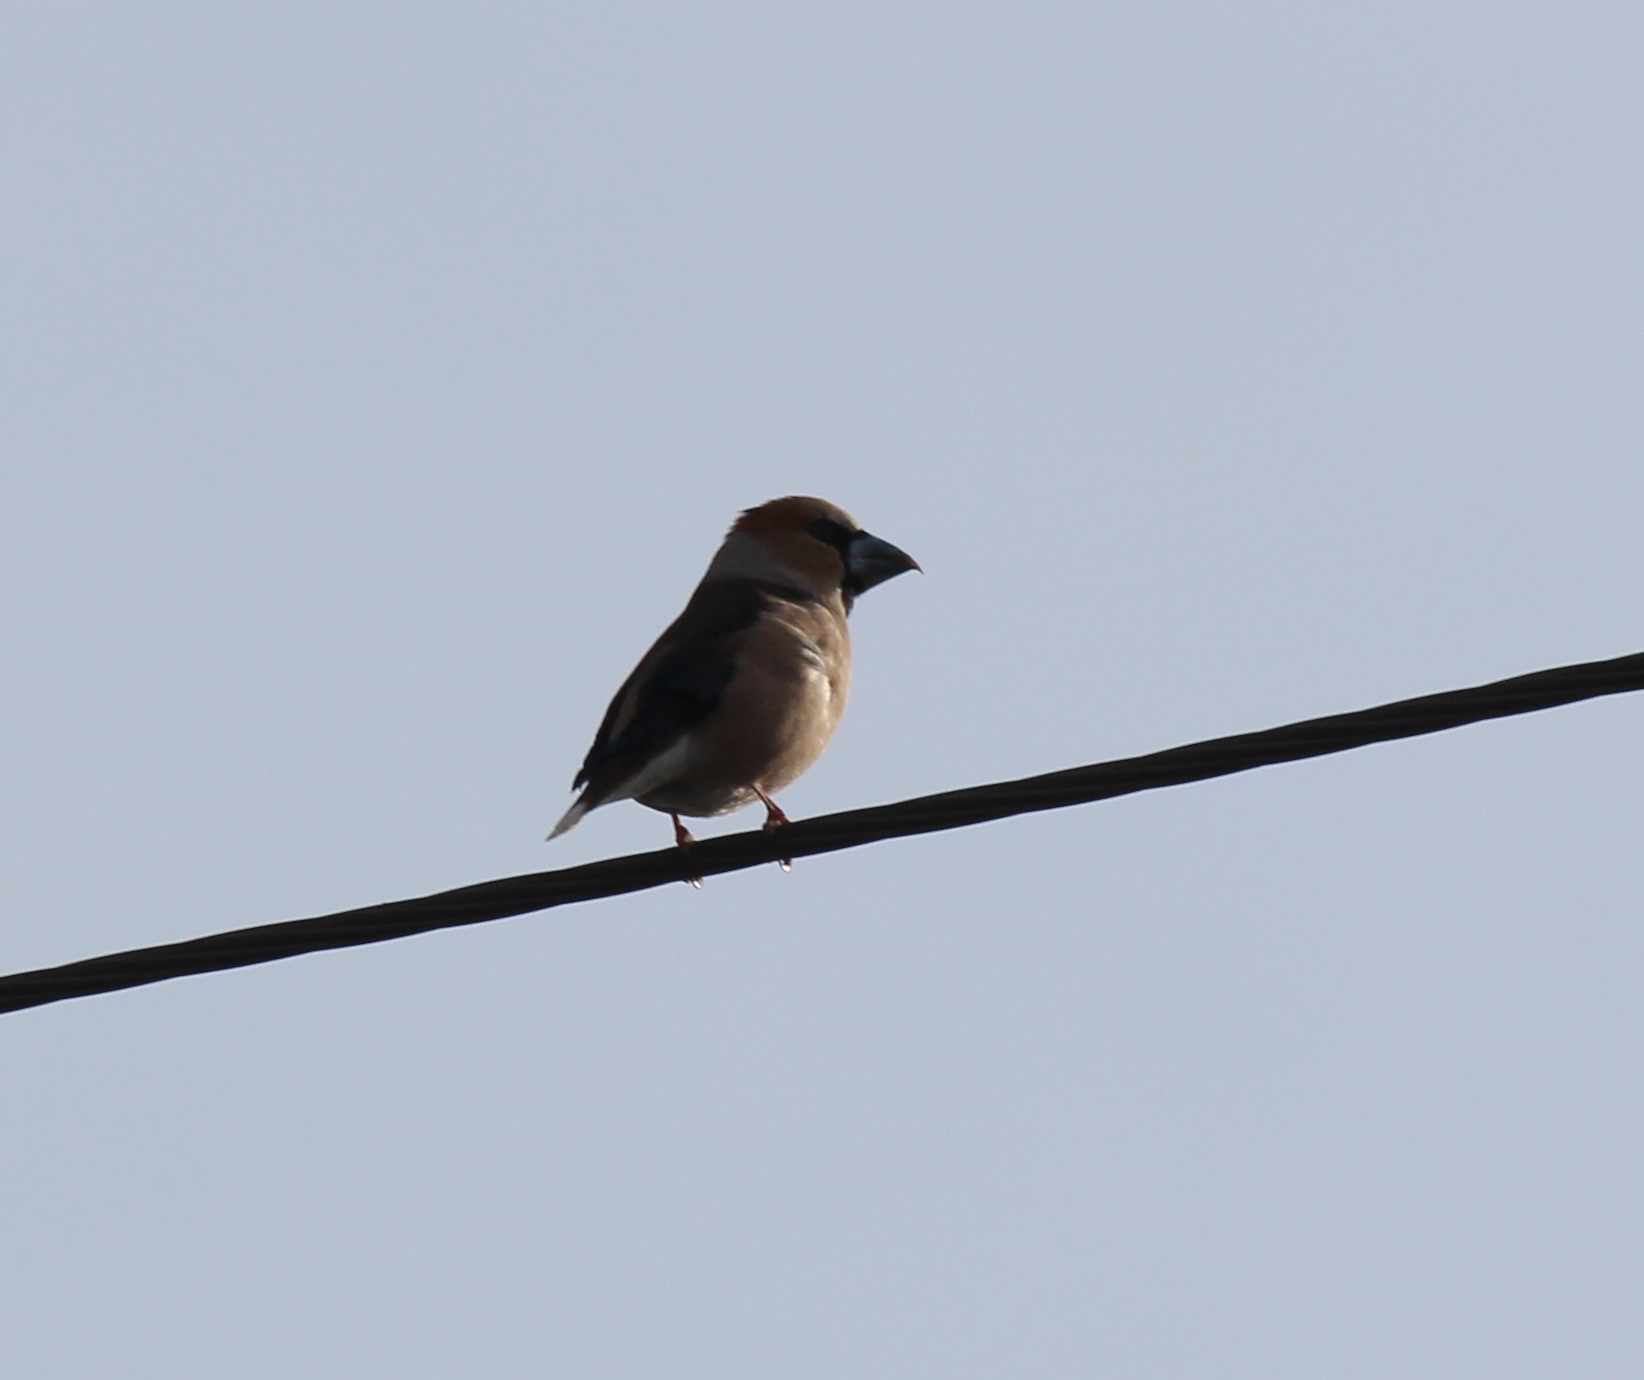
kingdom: Animalia
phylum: Chordata
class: Aves
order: Passeriformes
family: Fringillidae
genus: Coccothraustes
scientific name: Coccothraustes coccothraustes
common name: Hawfinch
